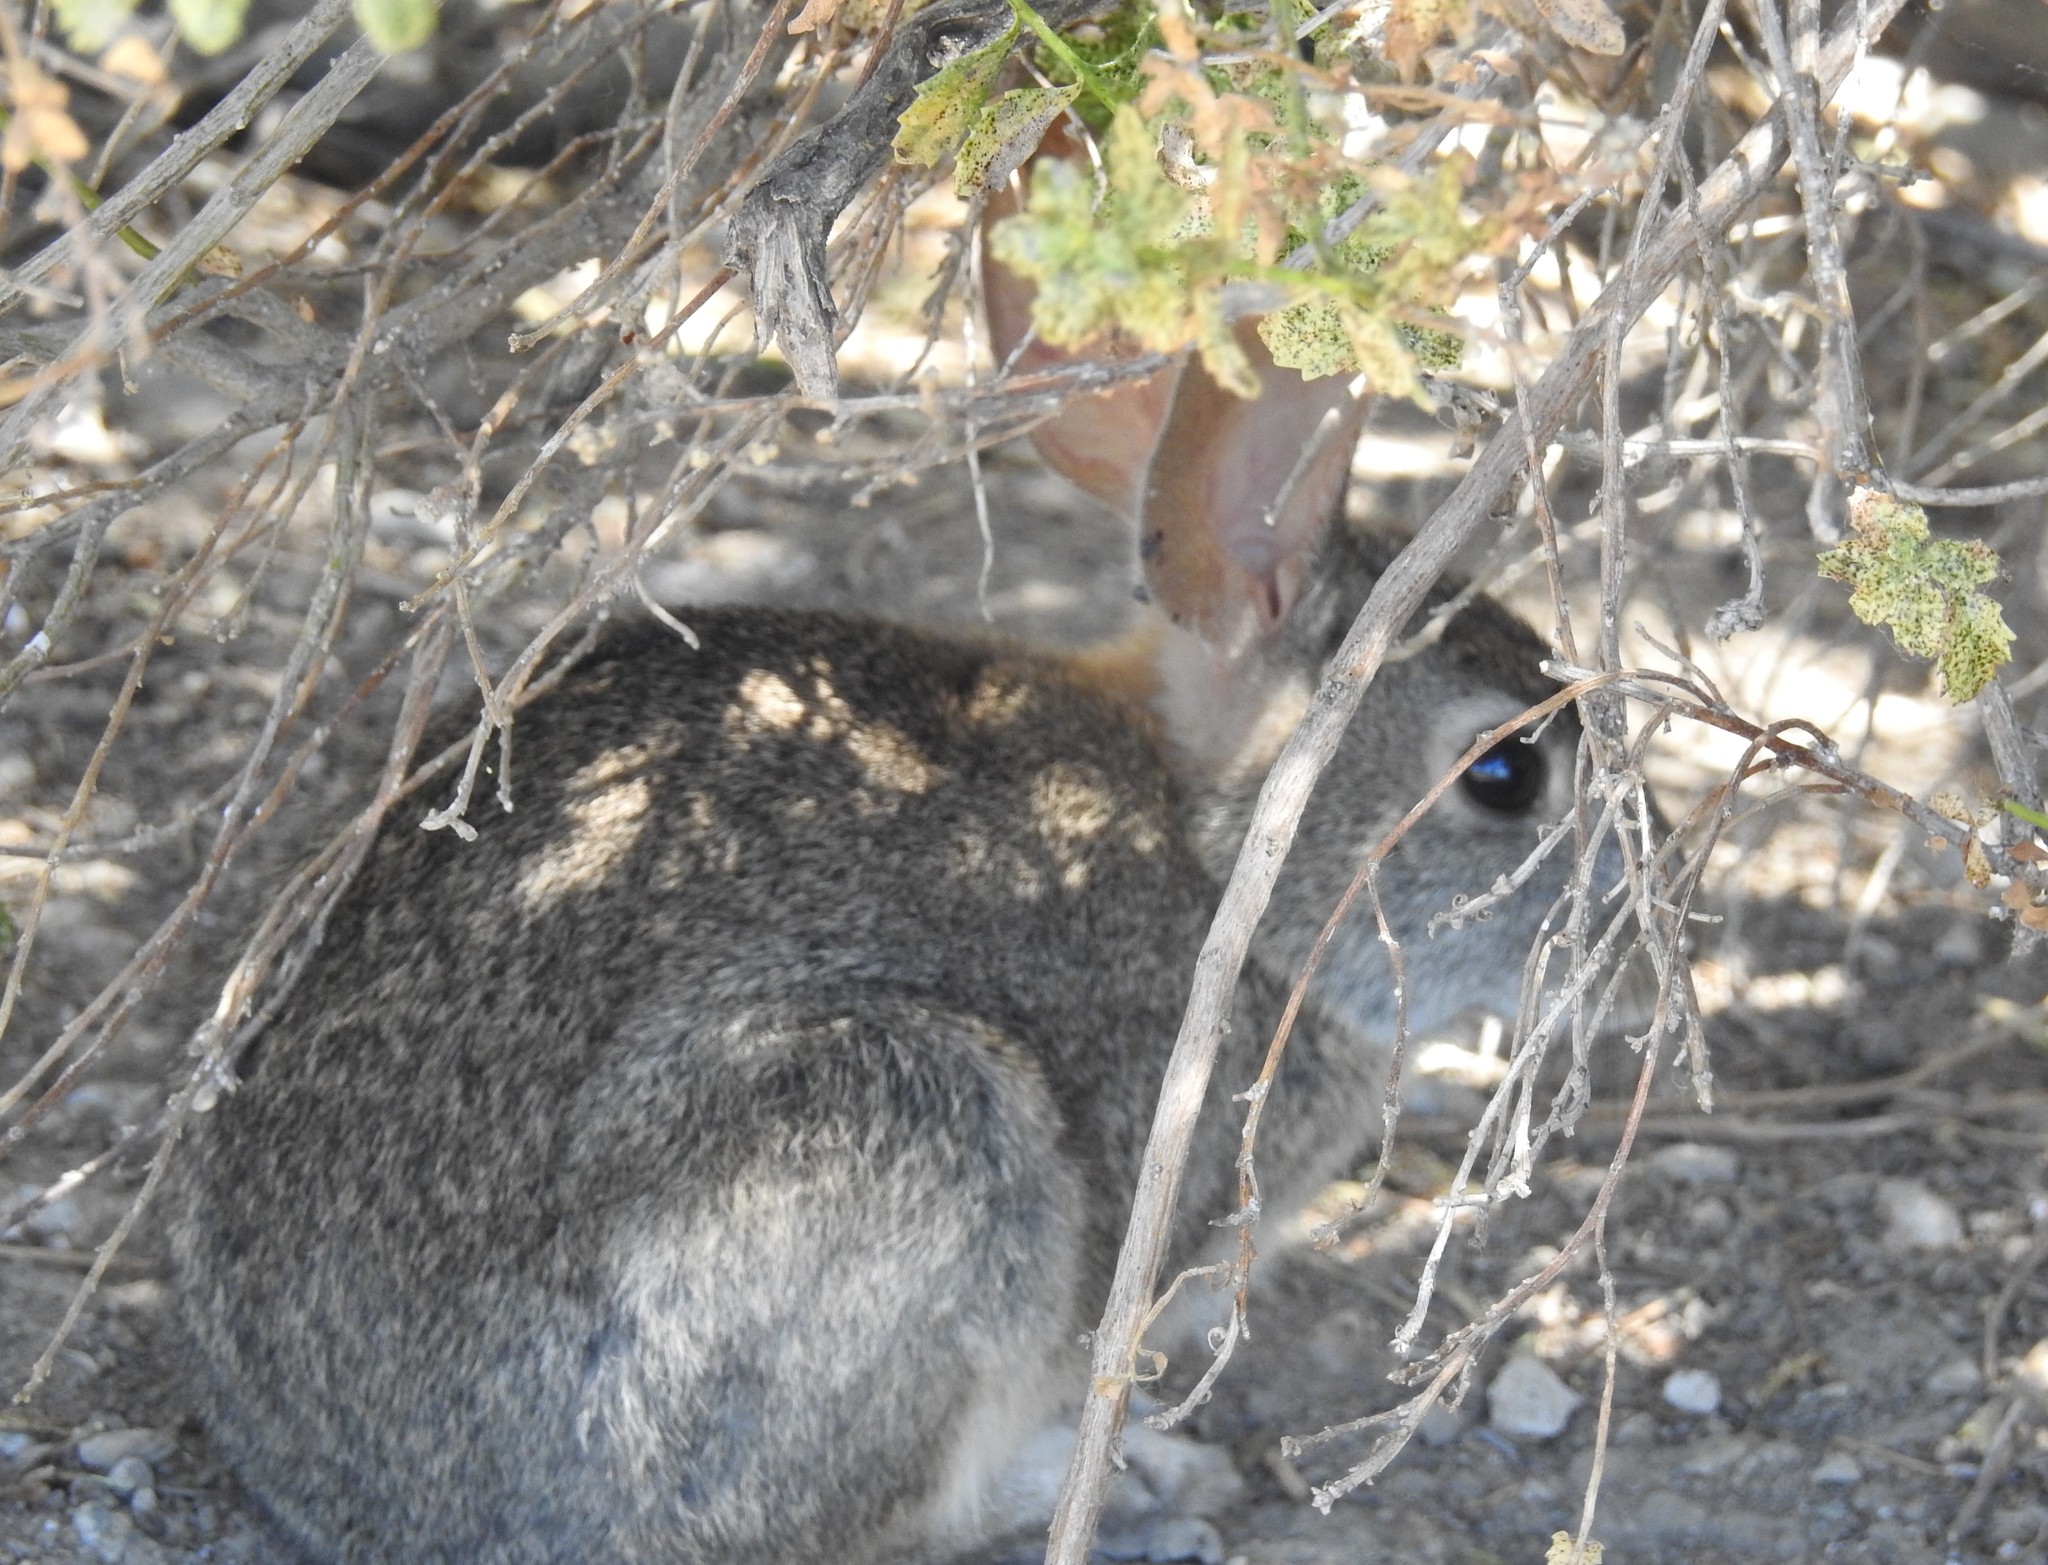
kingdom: Animalia
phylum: Chordata
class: Mammalia
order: Lagomorpha
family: Leporidae
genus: Sylvilagus
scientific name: Sylvilagus bachmani
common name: Brush rabbit
